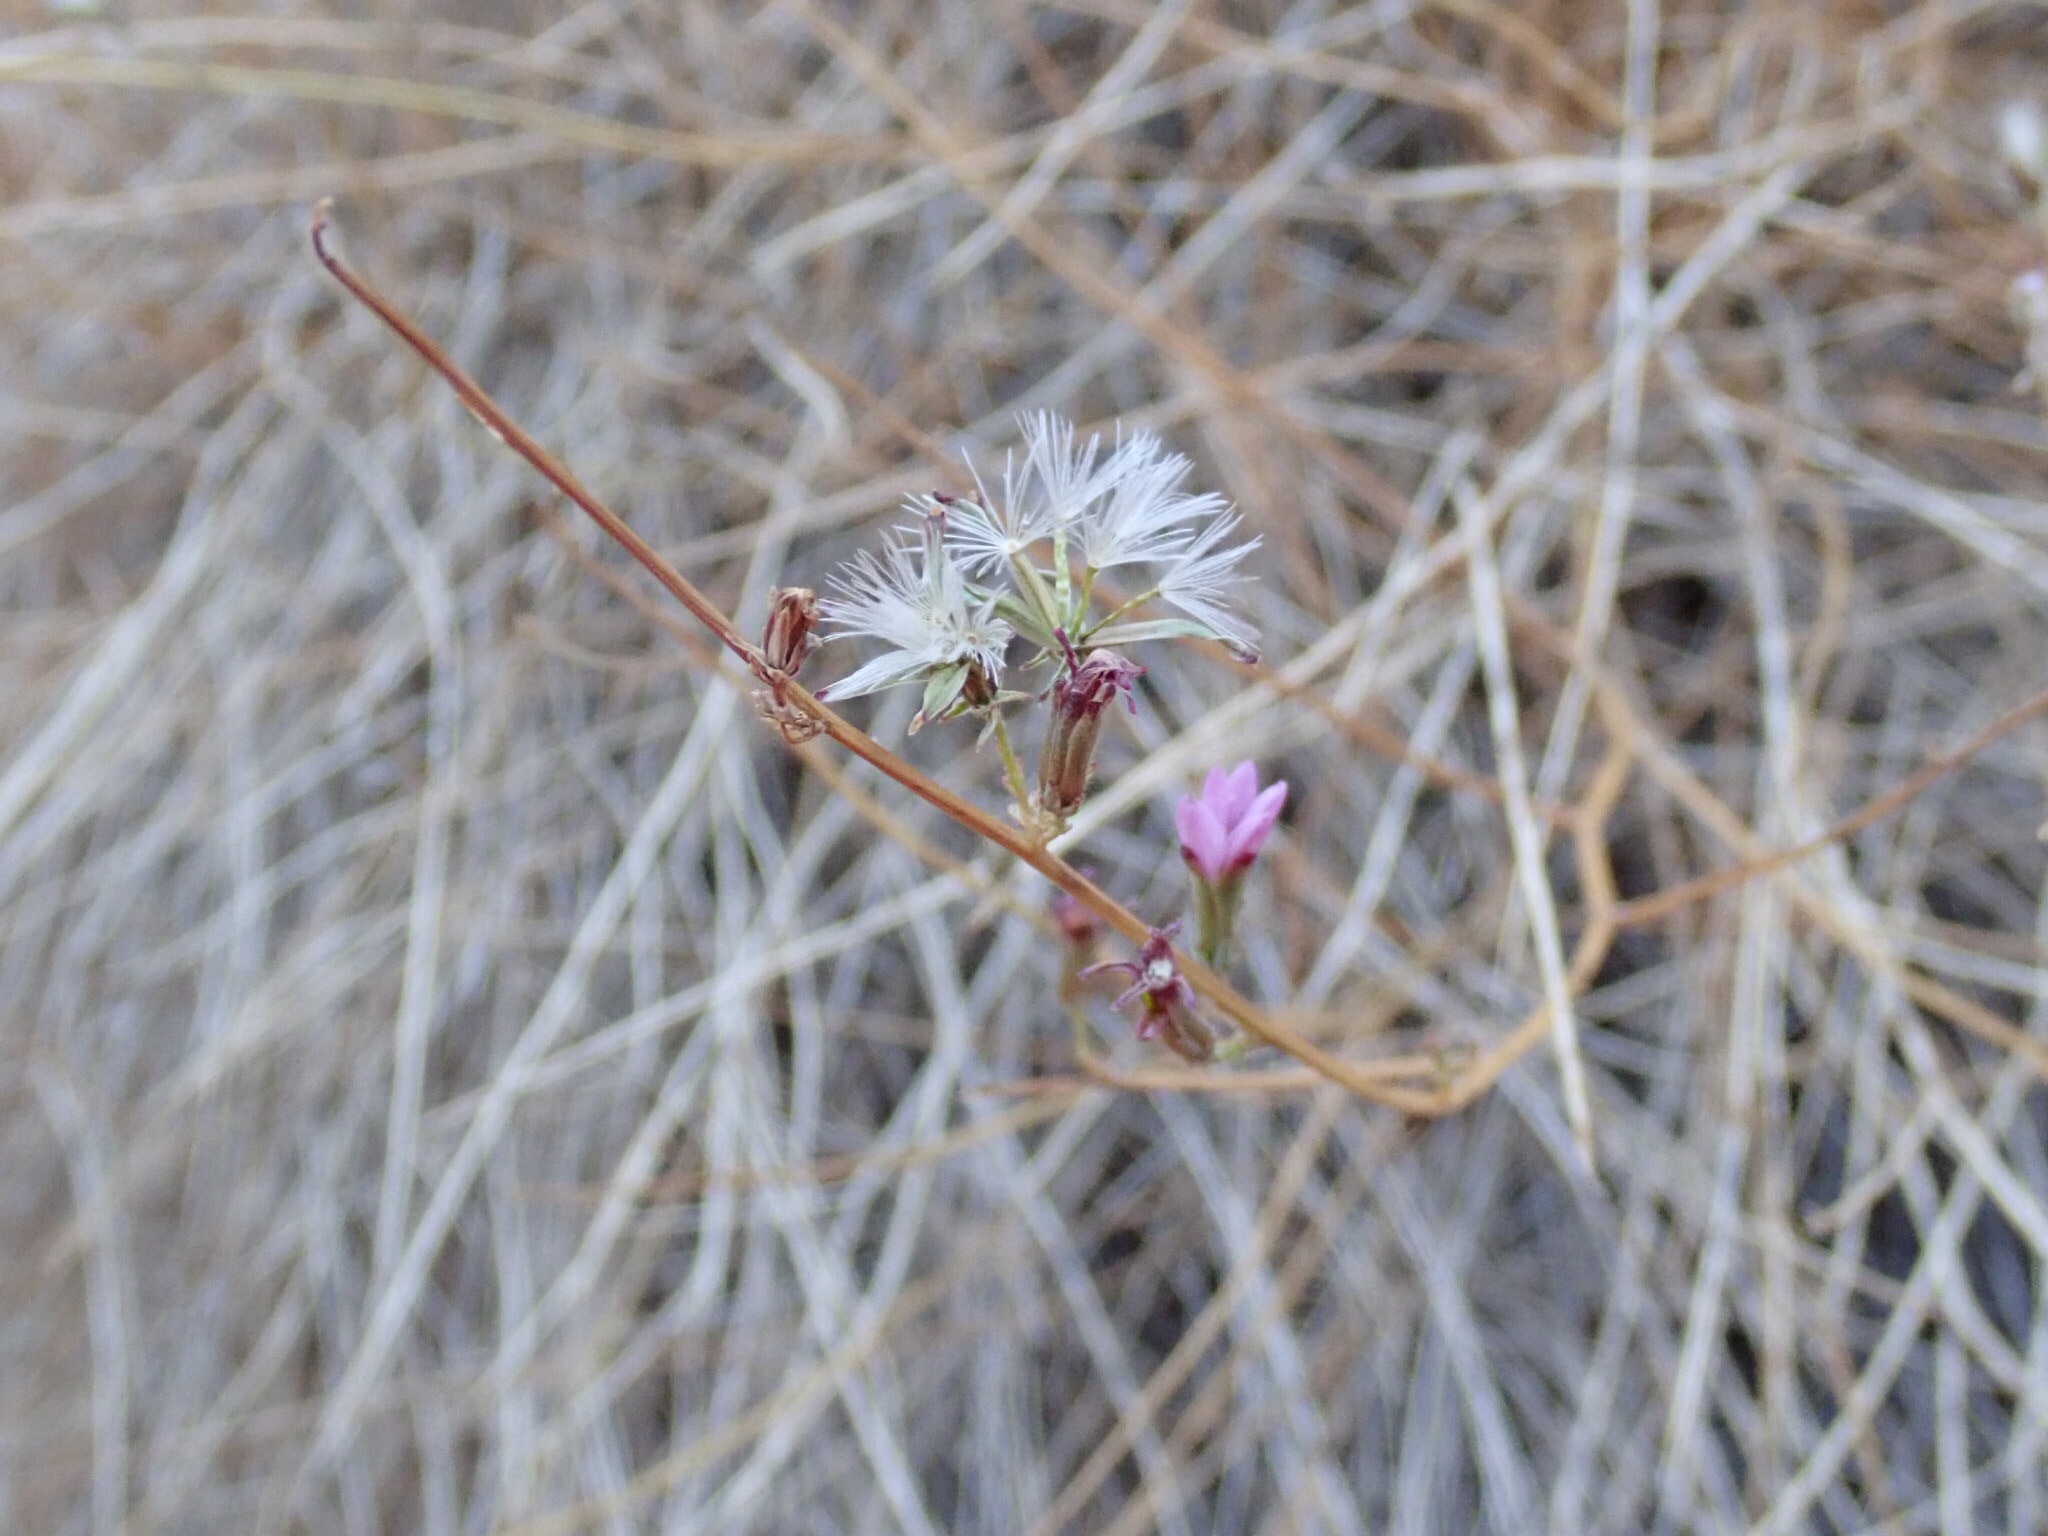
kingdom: Plantae
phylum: Tracheophyta
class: Magnoliopsida
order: Asterales
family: Asteraceae
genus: Stephanomeria
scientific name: Stephanomeria pauciflora
